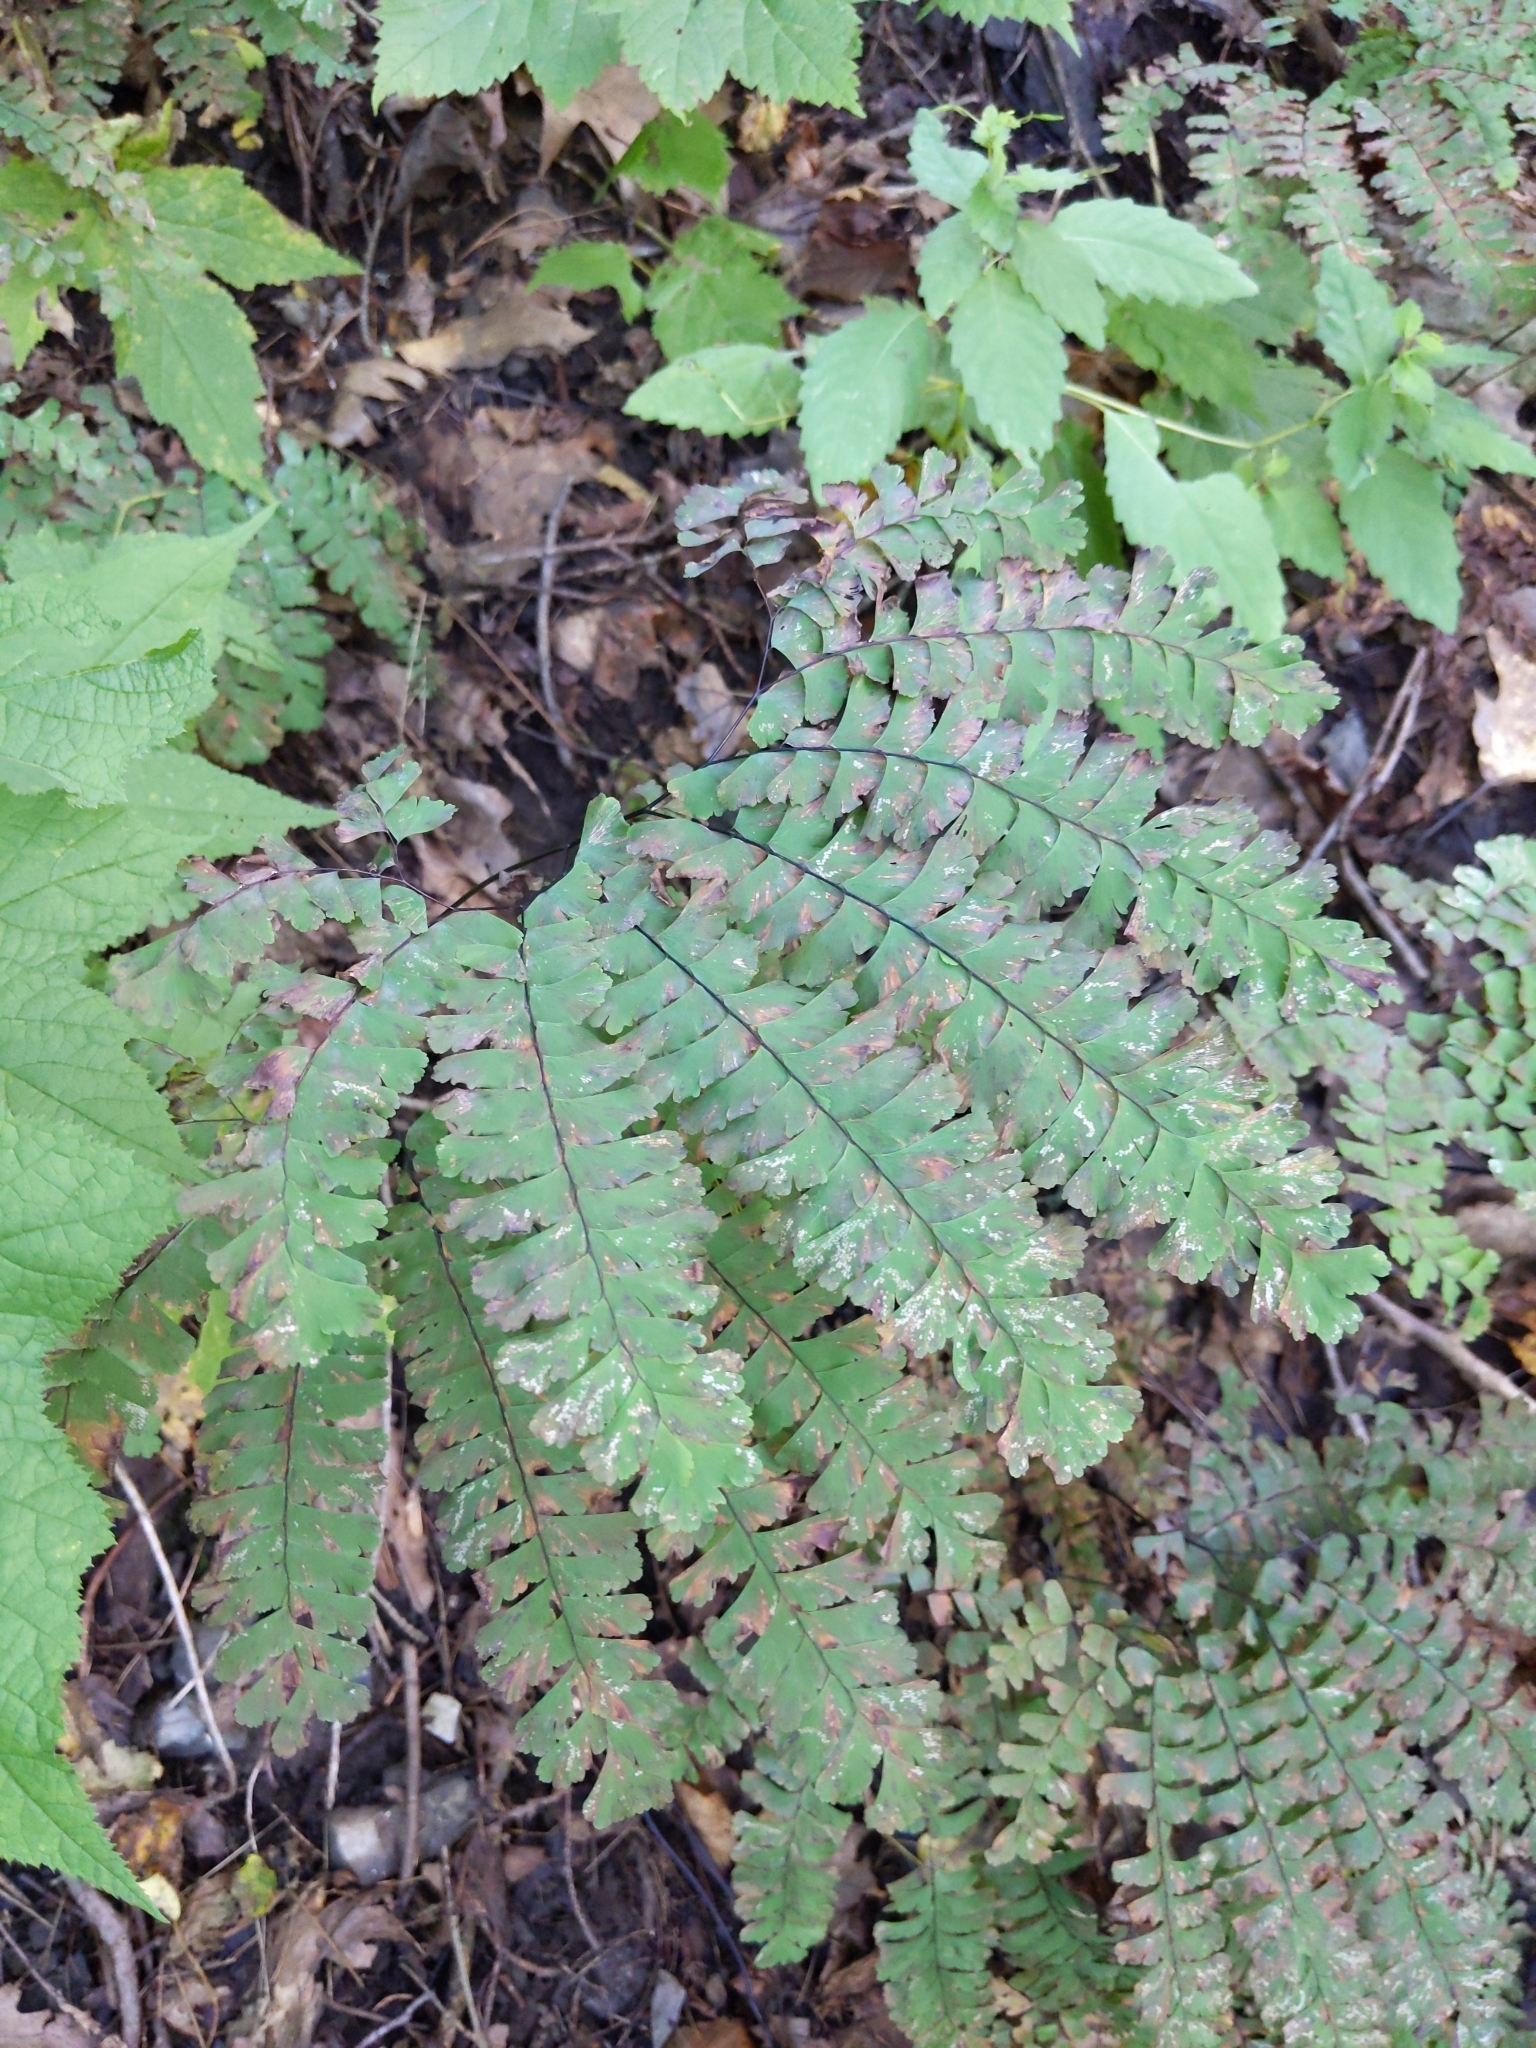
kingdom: Plantae
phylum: Tracheophyta
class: Polypodiopsida
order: Polypodiales
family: Pteridaceae
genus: Adiantum
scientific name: Adiantum pedatum
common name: Five-finger fern
